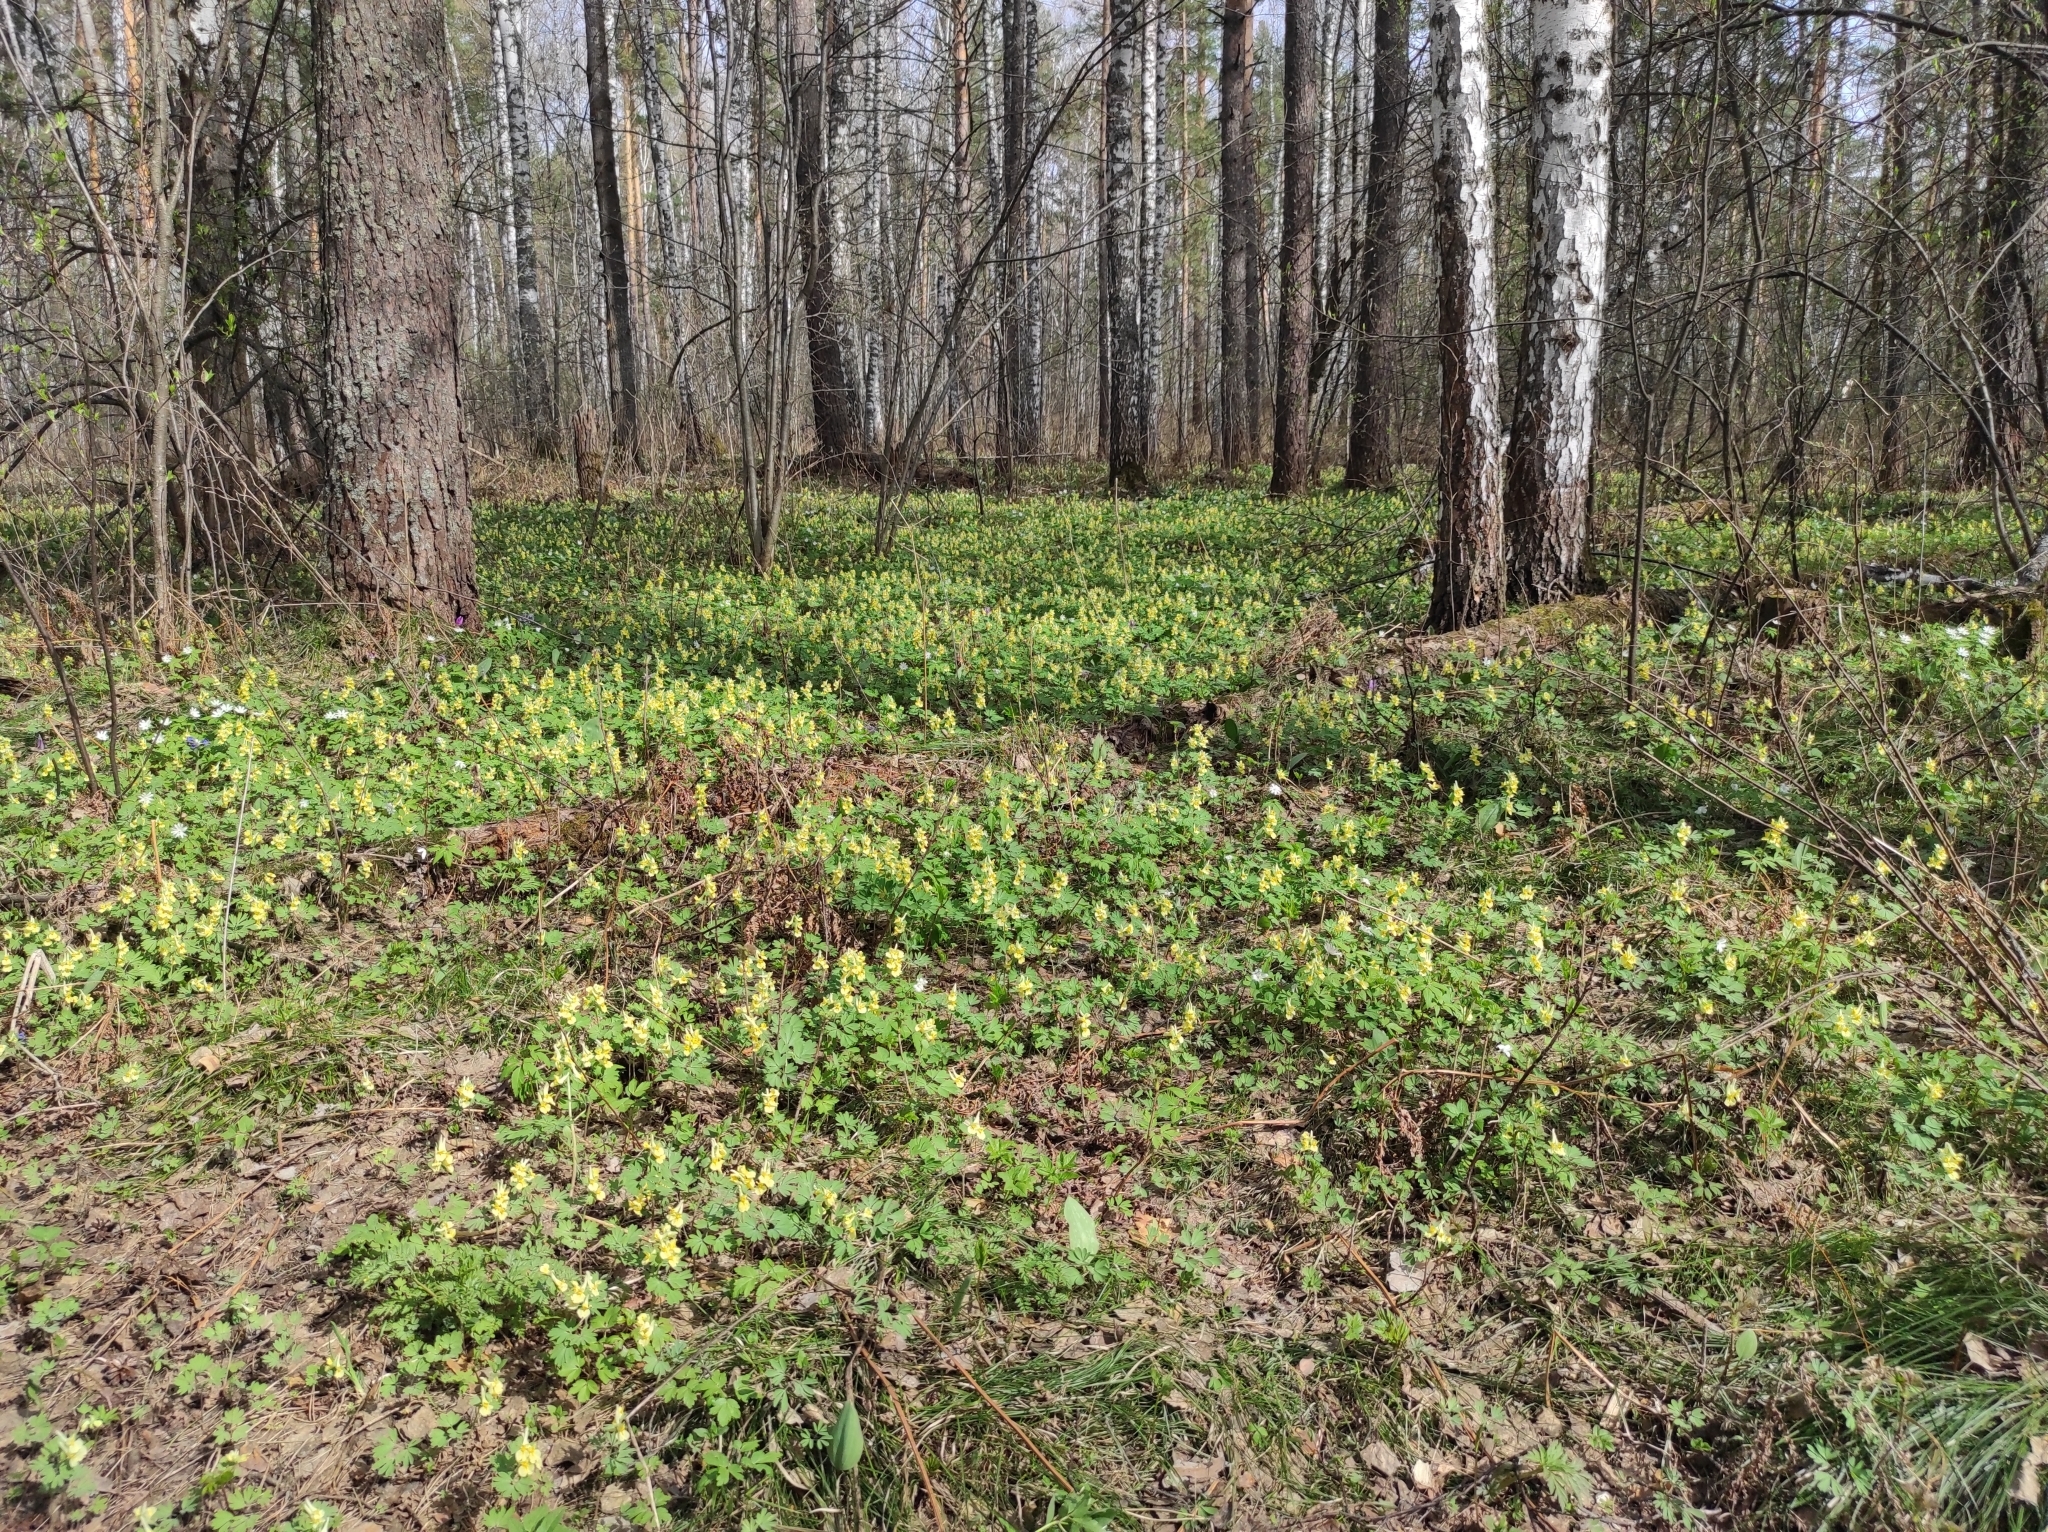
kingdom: Plantae
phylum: Tracheophyta
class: Pinopsida
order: Pinales
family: Pinaceae
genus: Pinus
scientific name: Pinus sylvestris
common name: Scots pine
